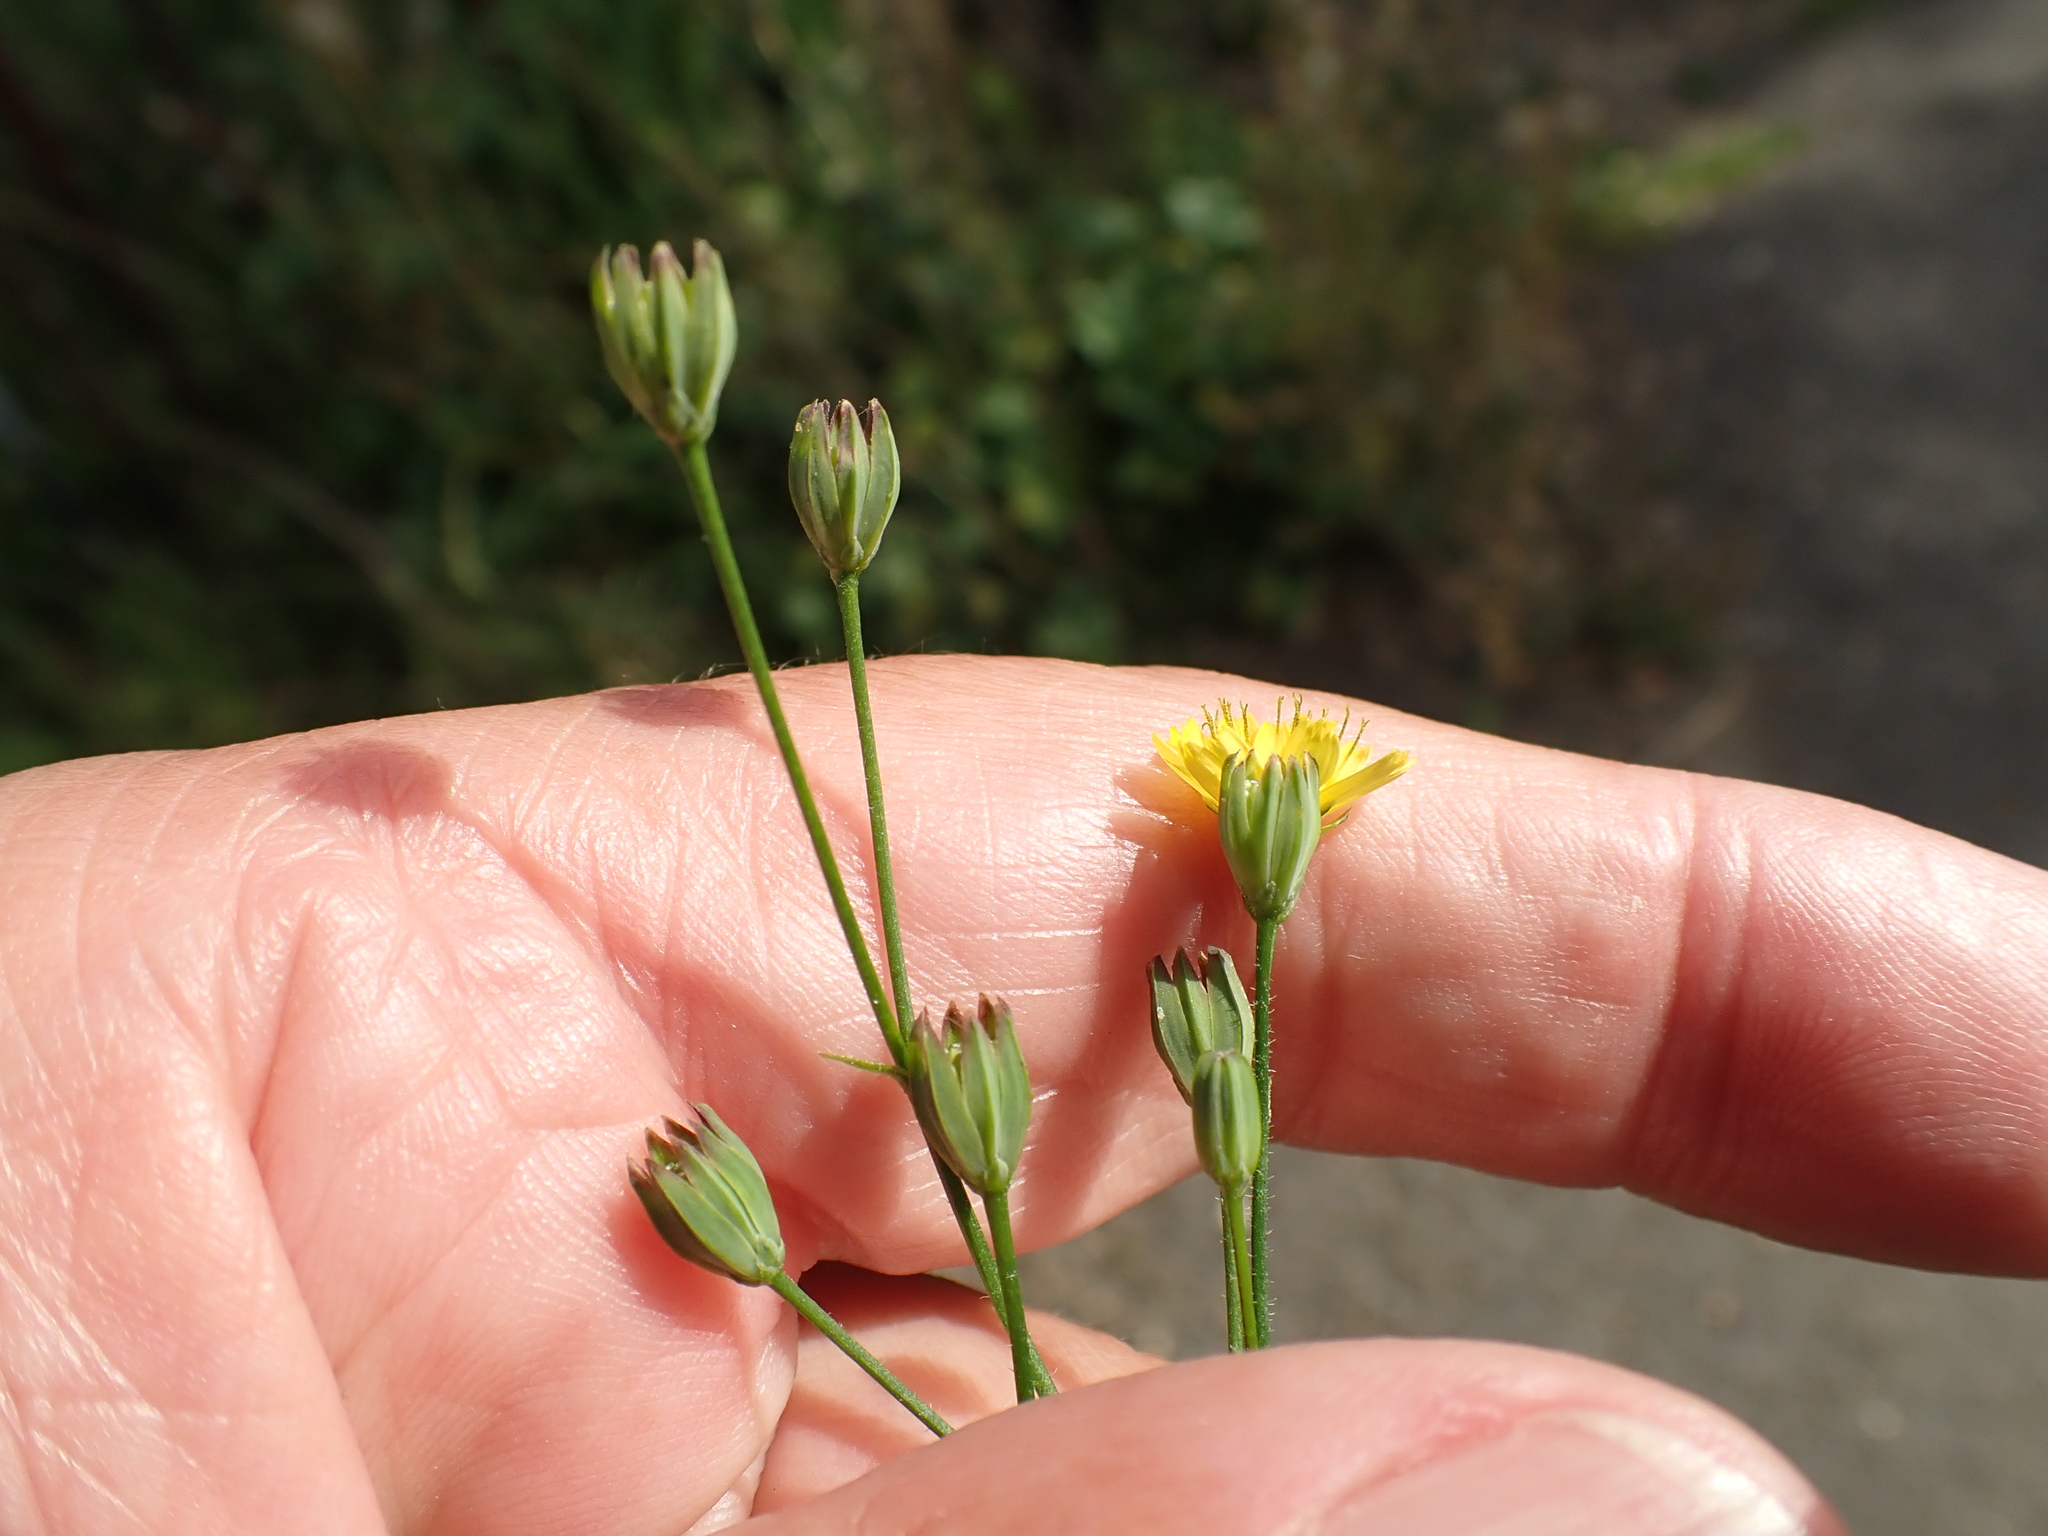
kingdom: Plantae
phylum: Tracheophyta
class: Magnoliopsida
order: Asterales
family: Asteraceae
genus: Lapsana
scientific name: Lapsana communis
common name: Nipplewort
